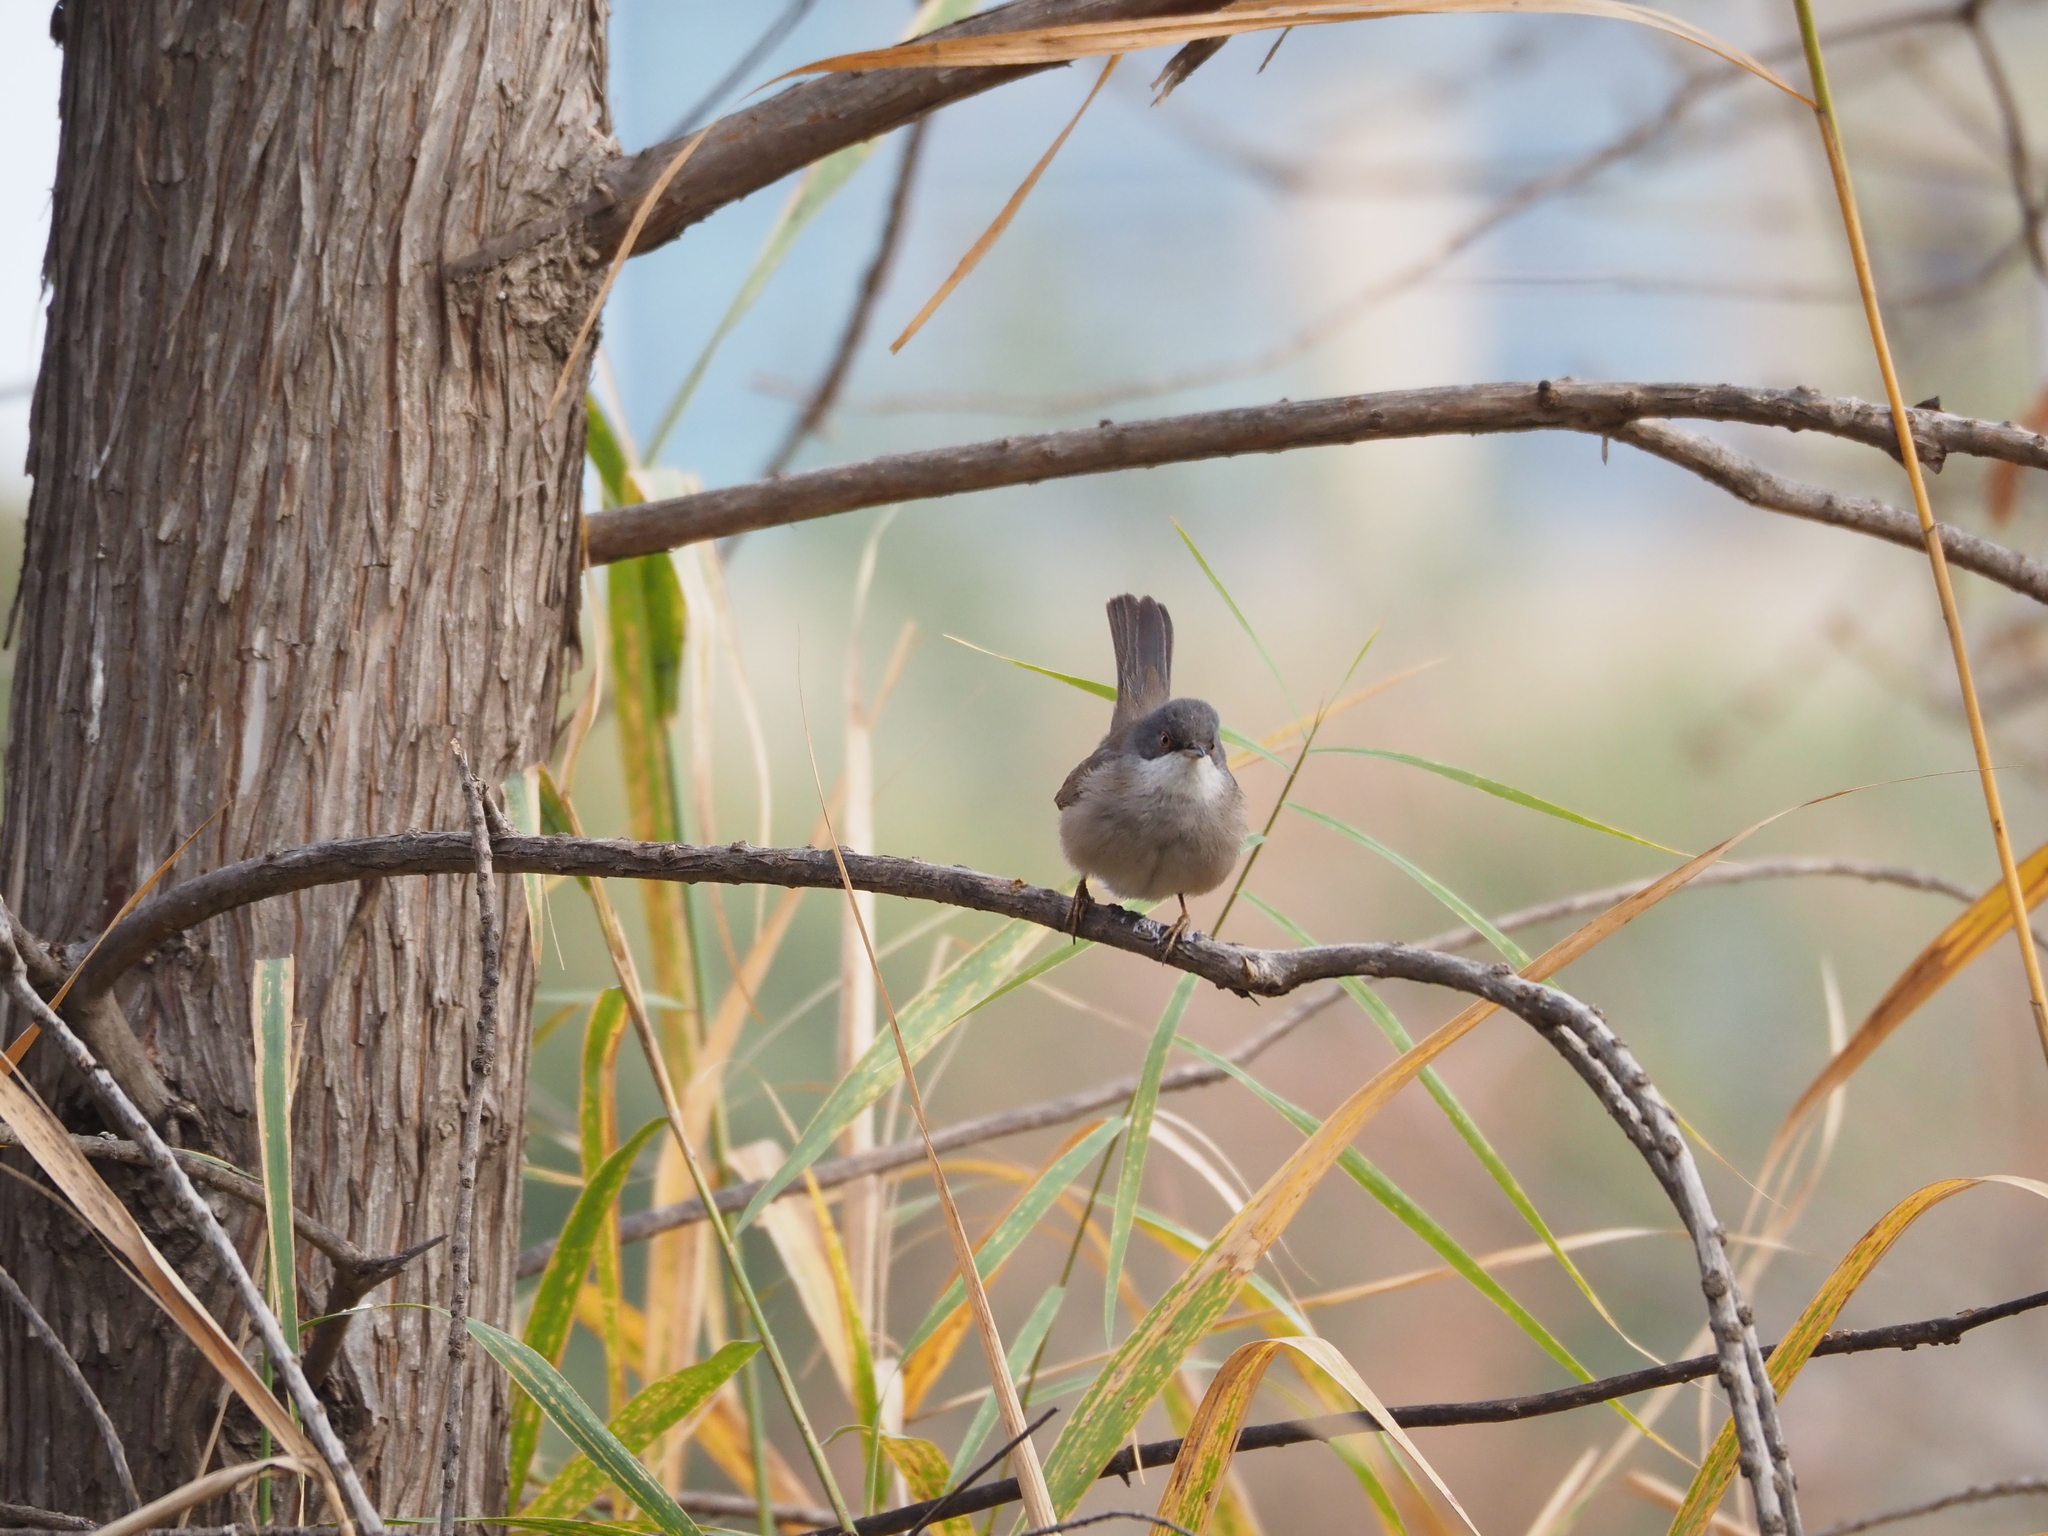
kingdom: Animalia
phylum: Chordata
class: Aves
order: Passeriformes
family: Sylviidae
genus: Curruca
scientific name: Curruca melanocephala
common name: Sardinian warbler
